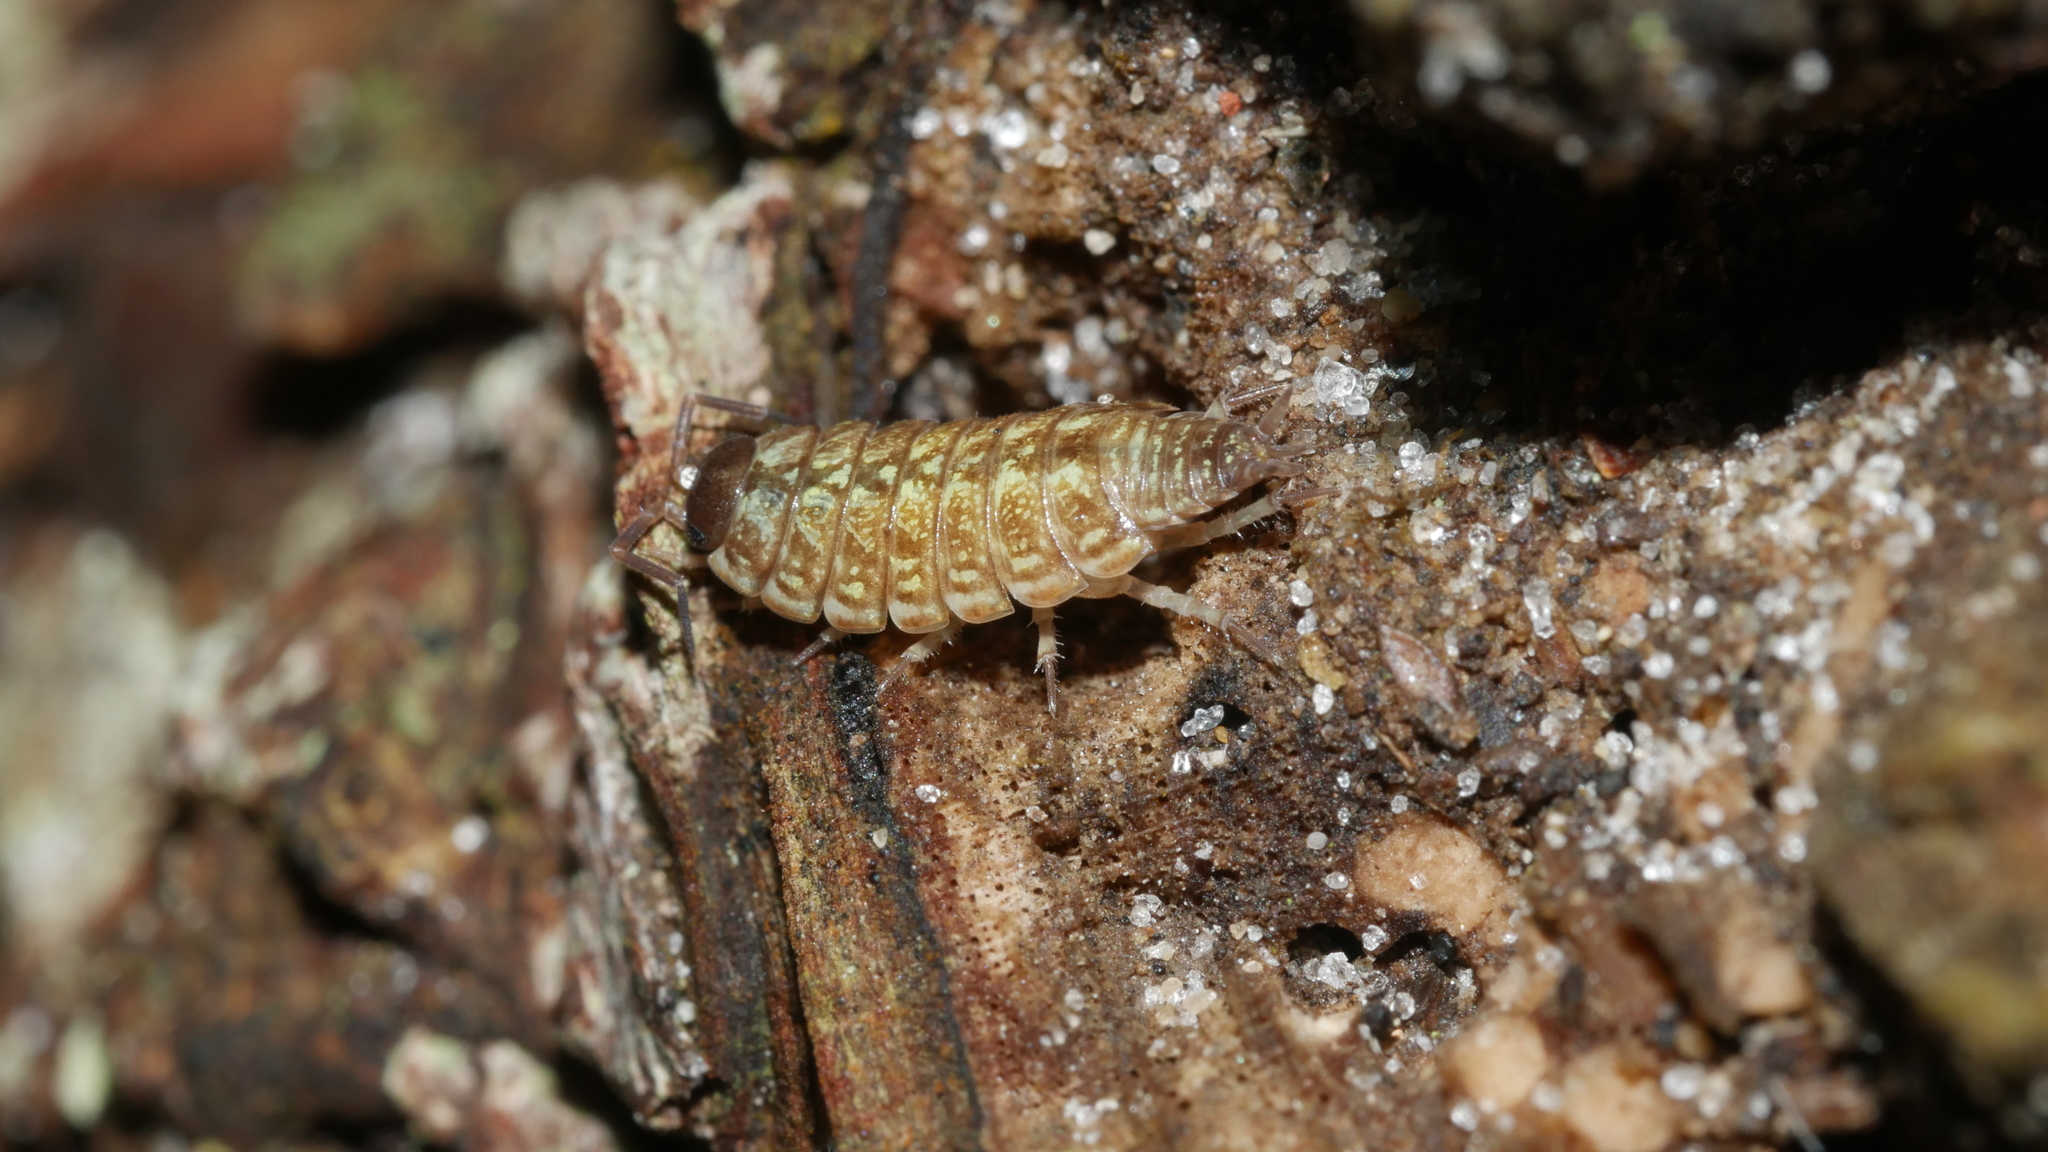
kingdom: Animalia
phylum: Arthropoda
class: Malacostraca
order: Isopoda
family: Philosciidae
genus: Philoscia
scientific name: Philoscia muscorum
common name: Common striped woodlouse
